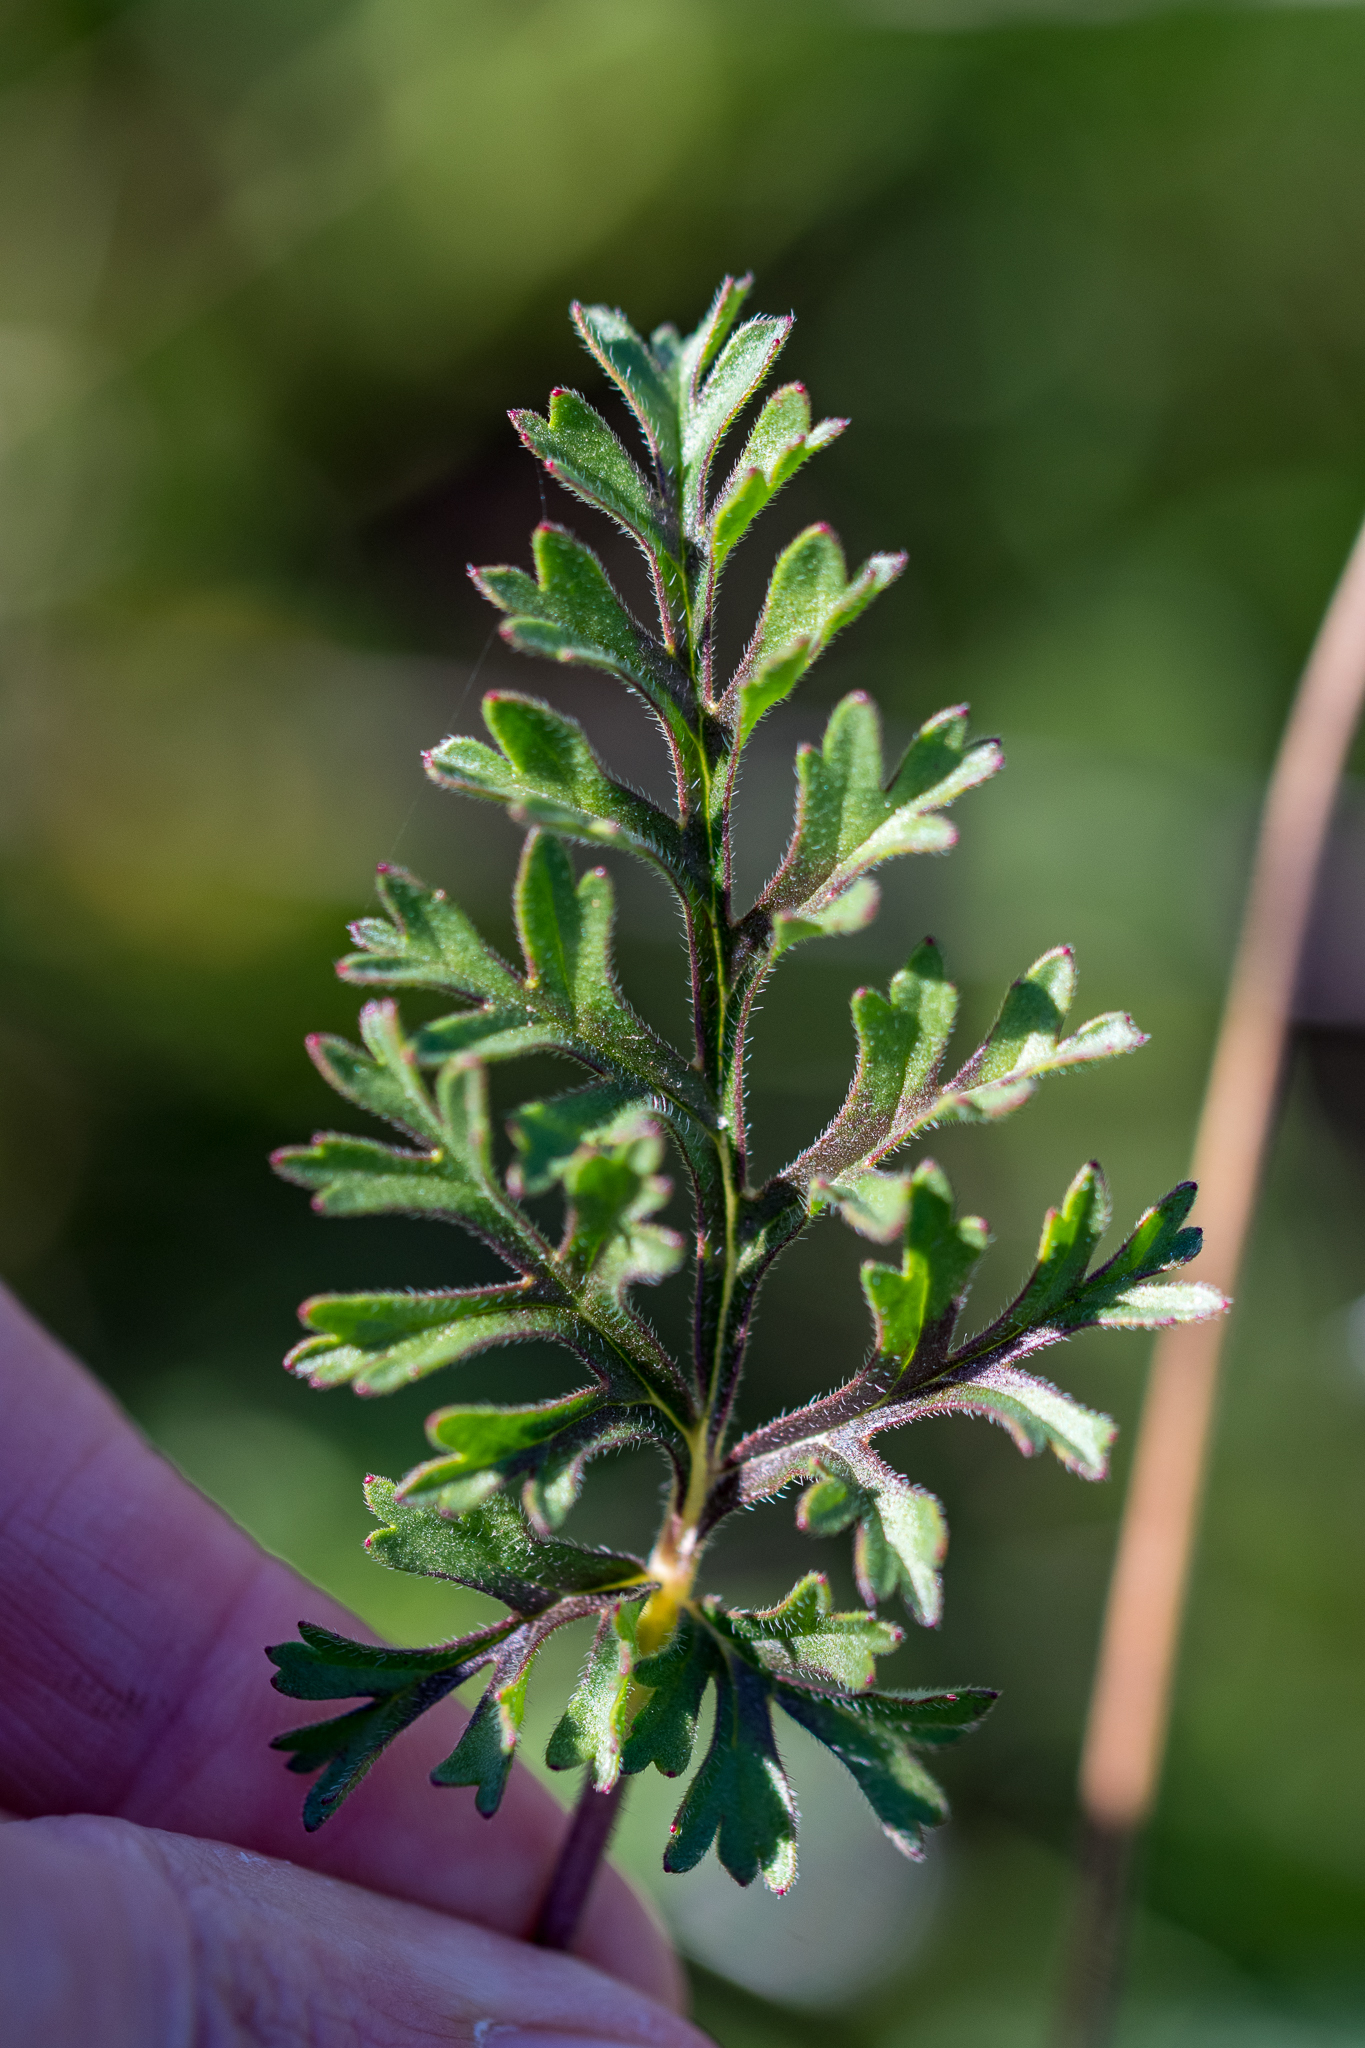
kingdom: Plantae
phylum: Tracheophyta
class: Magnoliopsida
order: Geraniales
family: Geraniaceae
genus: Pelargonium
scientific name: Pelargonium myrrhifolium
